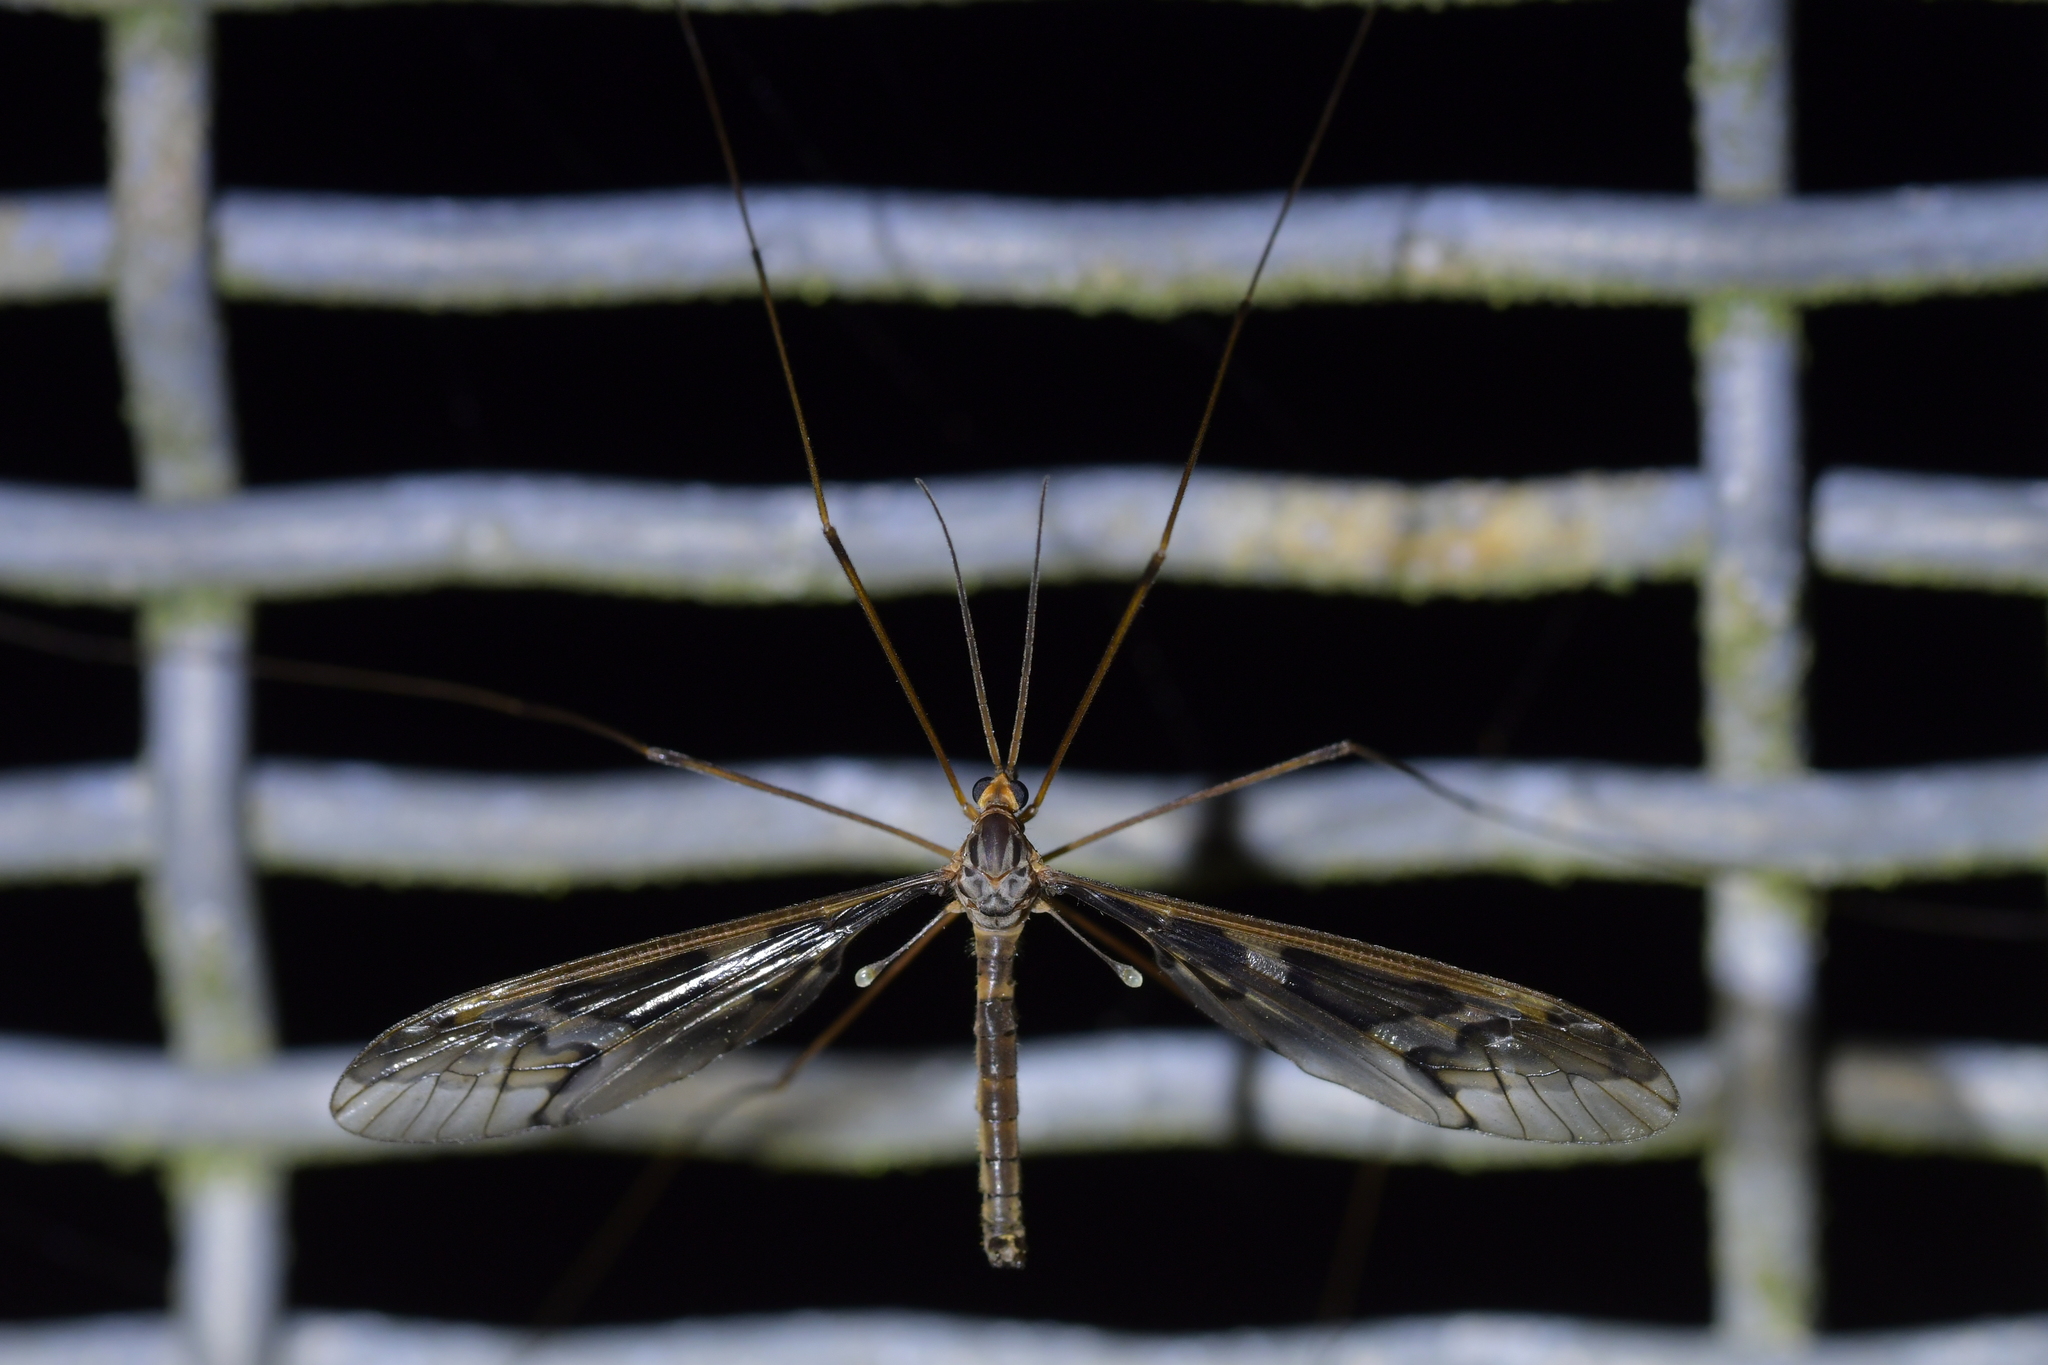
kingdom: Animalia
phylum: Arthropoda
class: Insecta
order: Diptera
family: Tipulidae
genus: Leptotarsus
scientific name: Leptotarsus binotatus
